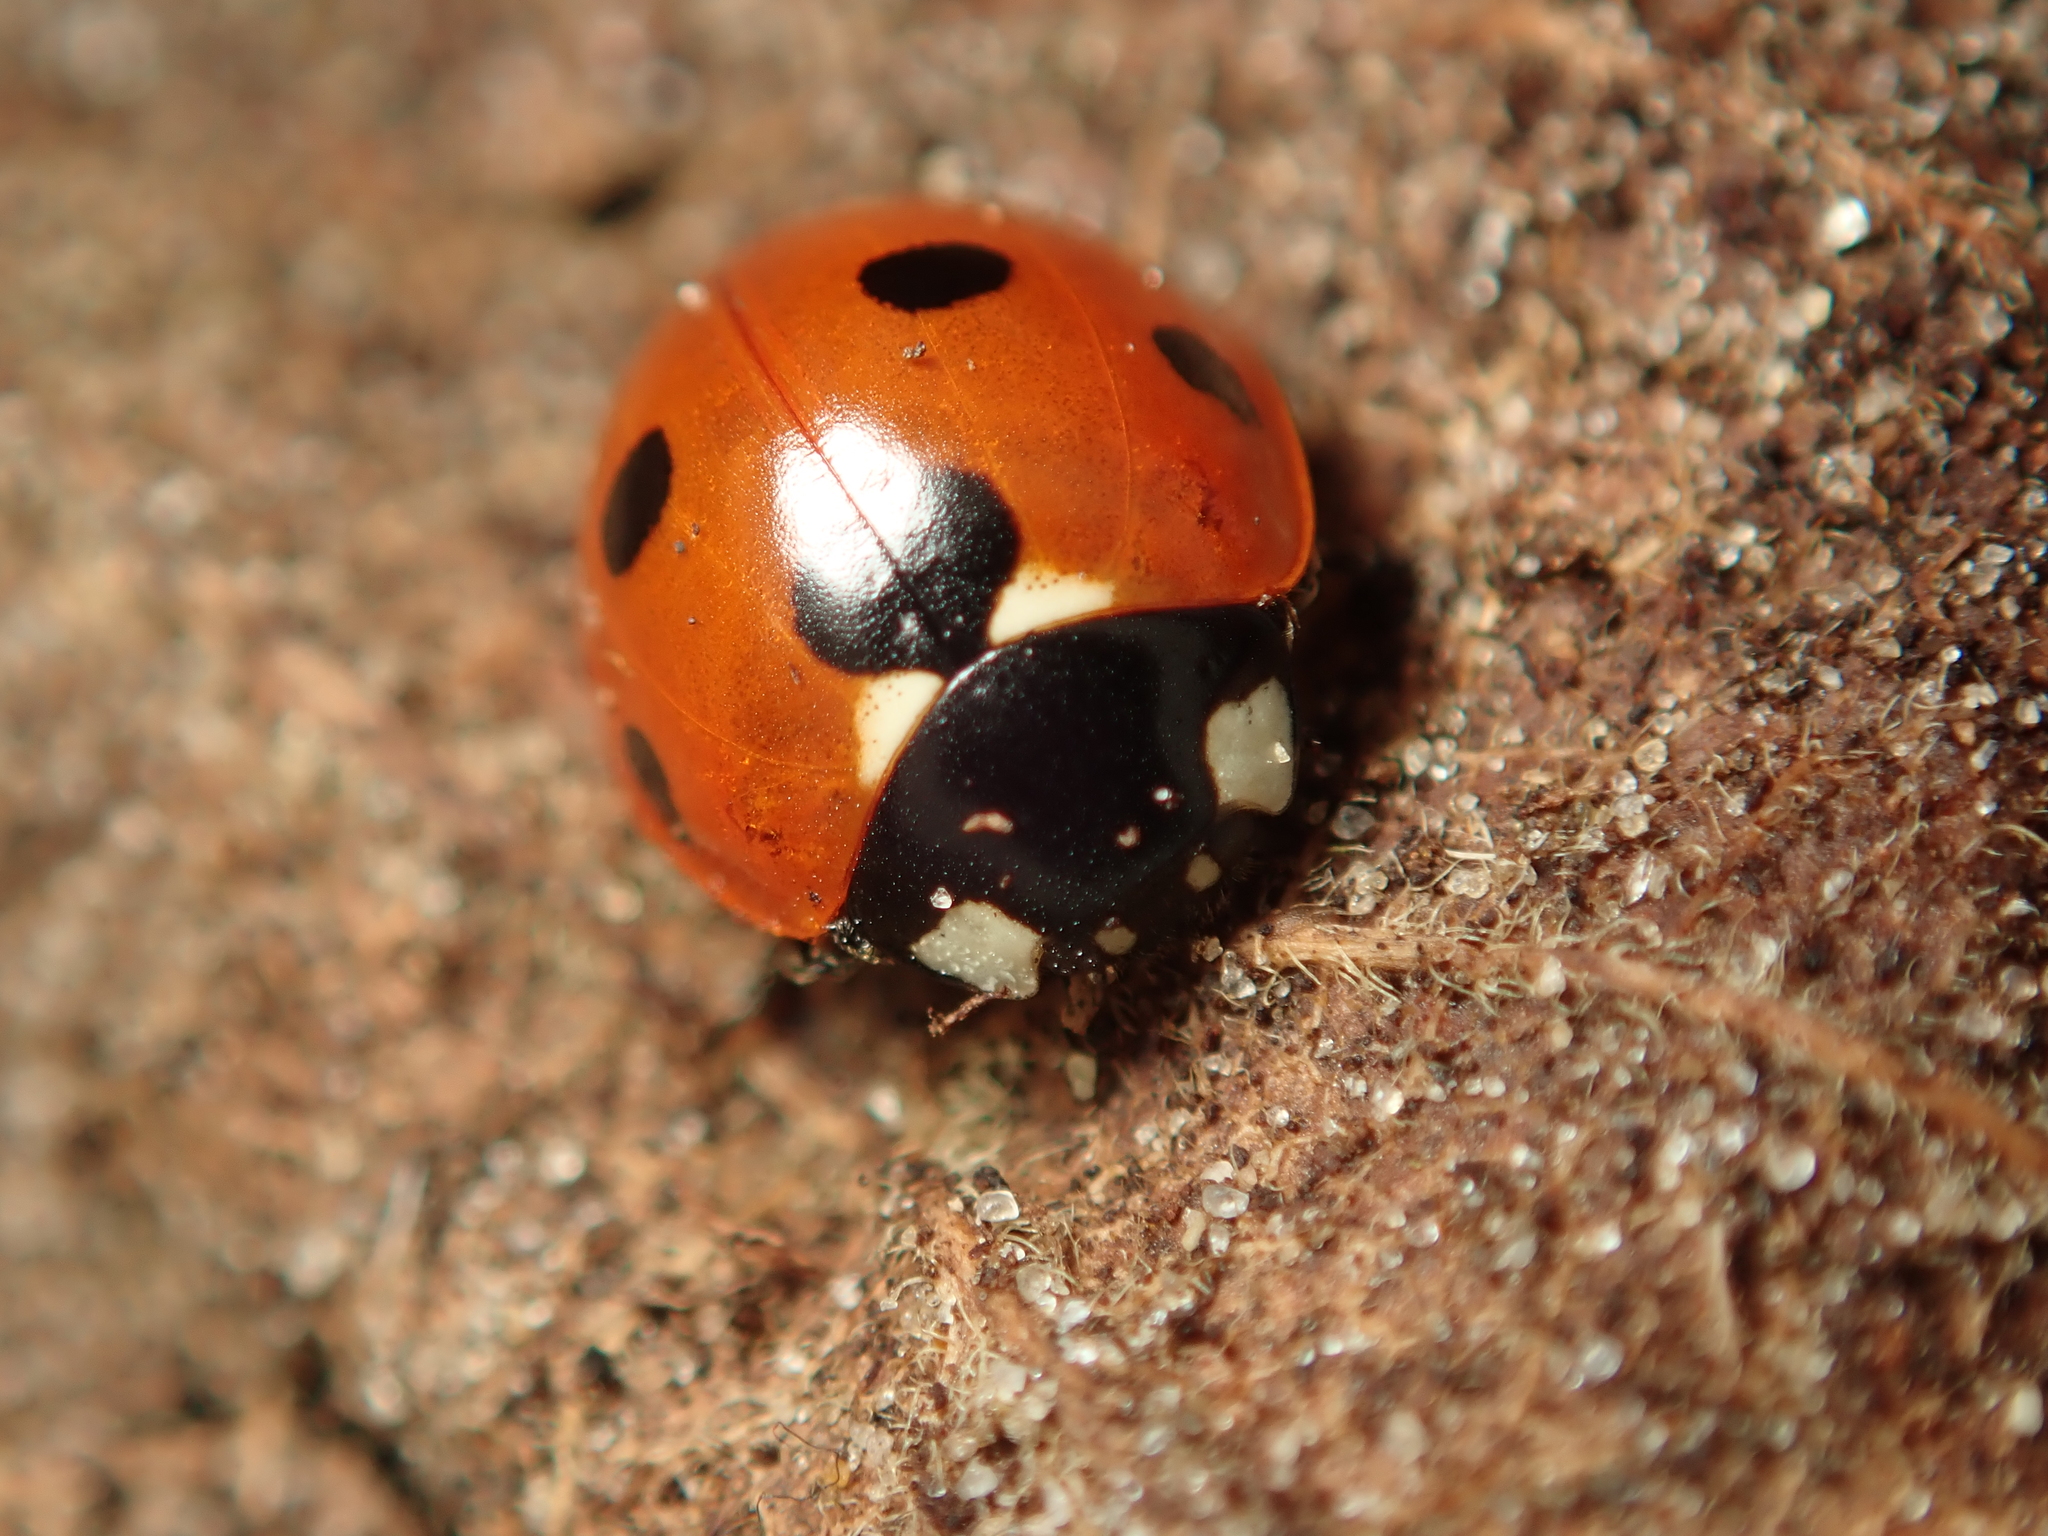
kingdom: Animalia
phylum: Arthropoda
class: Insecta
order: Coleoptera
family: Coccinellidae
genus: Coccinella
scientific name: Coccinella septempunctata
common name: Sevenspotted lady beetle
